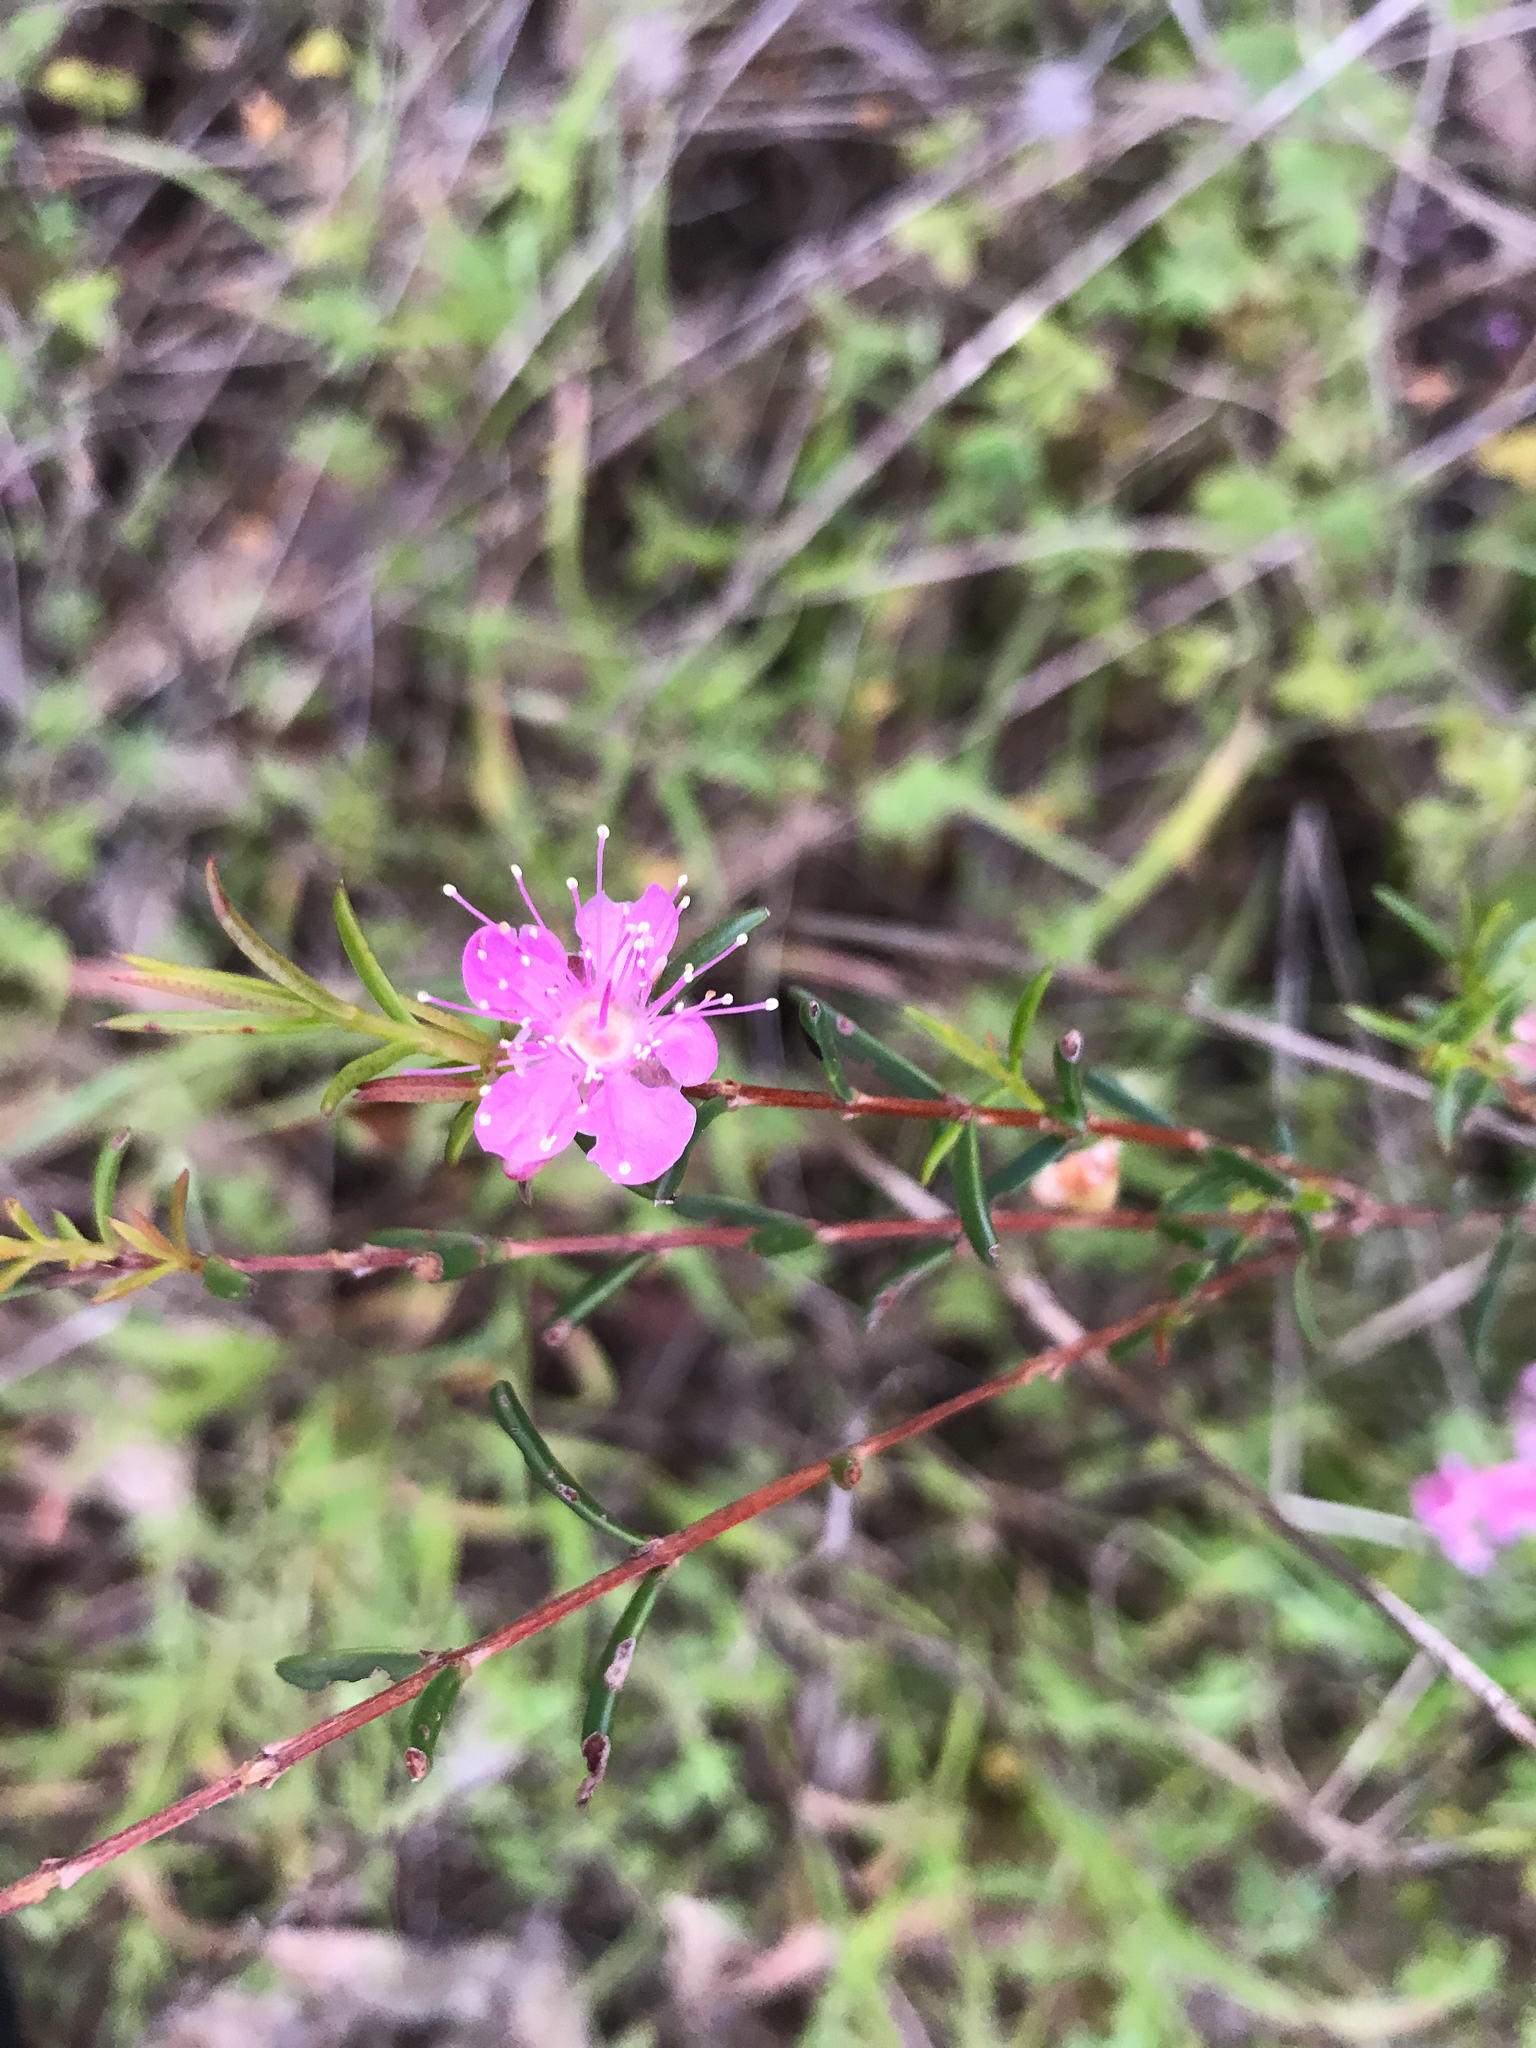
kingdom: Plantae
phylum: Tracheophyta
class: Magnoliopsida
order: Myrtales
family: Myrtaceae
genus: Hypocalymma
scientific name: Hypocalymma robustum
